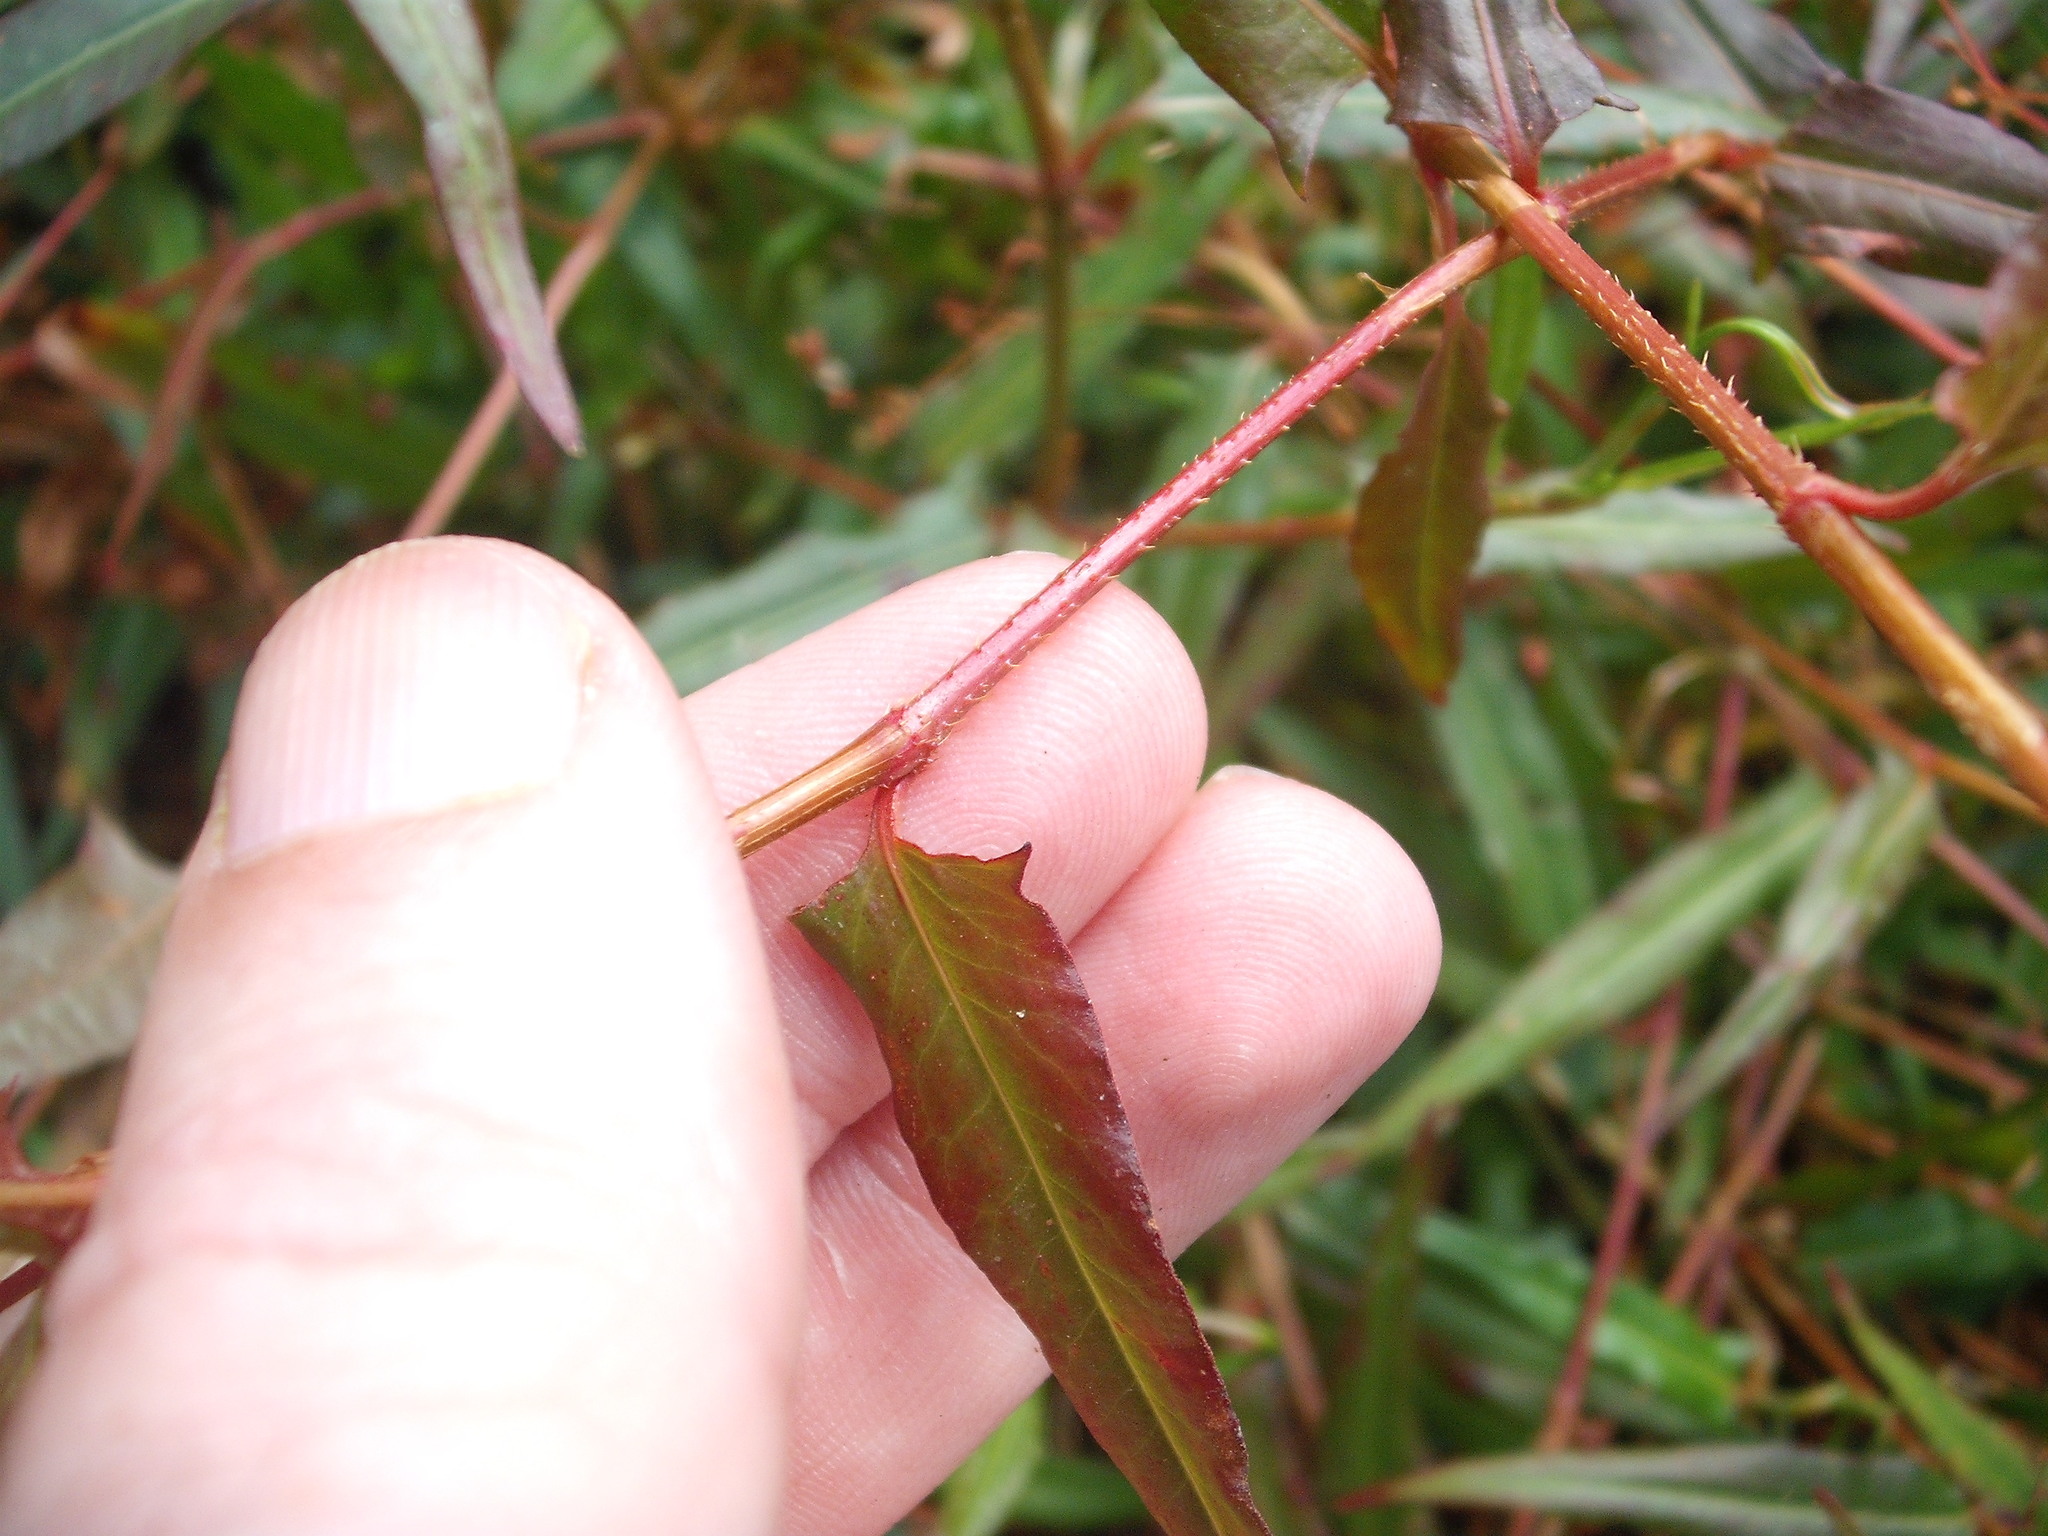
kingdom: Plantae
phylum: Tracheophyta
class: Magnoliopsida
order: Caryophyllales
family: Polygonaceae
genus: Persicaria
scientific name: Persicaria strigosa
